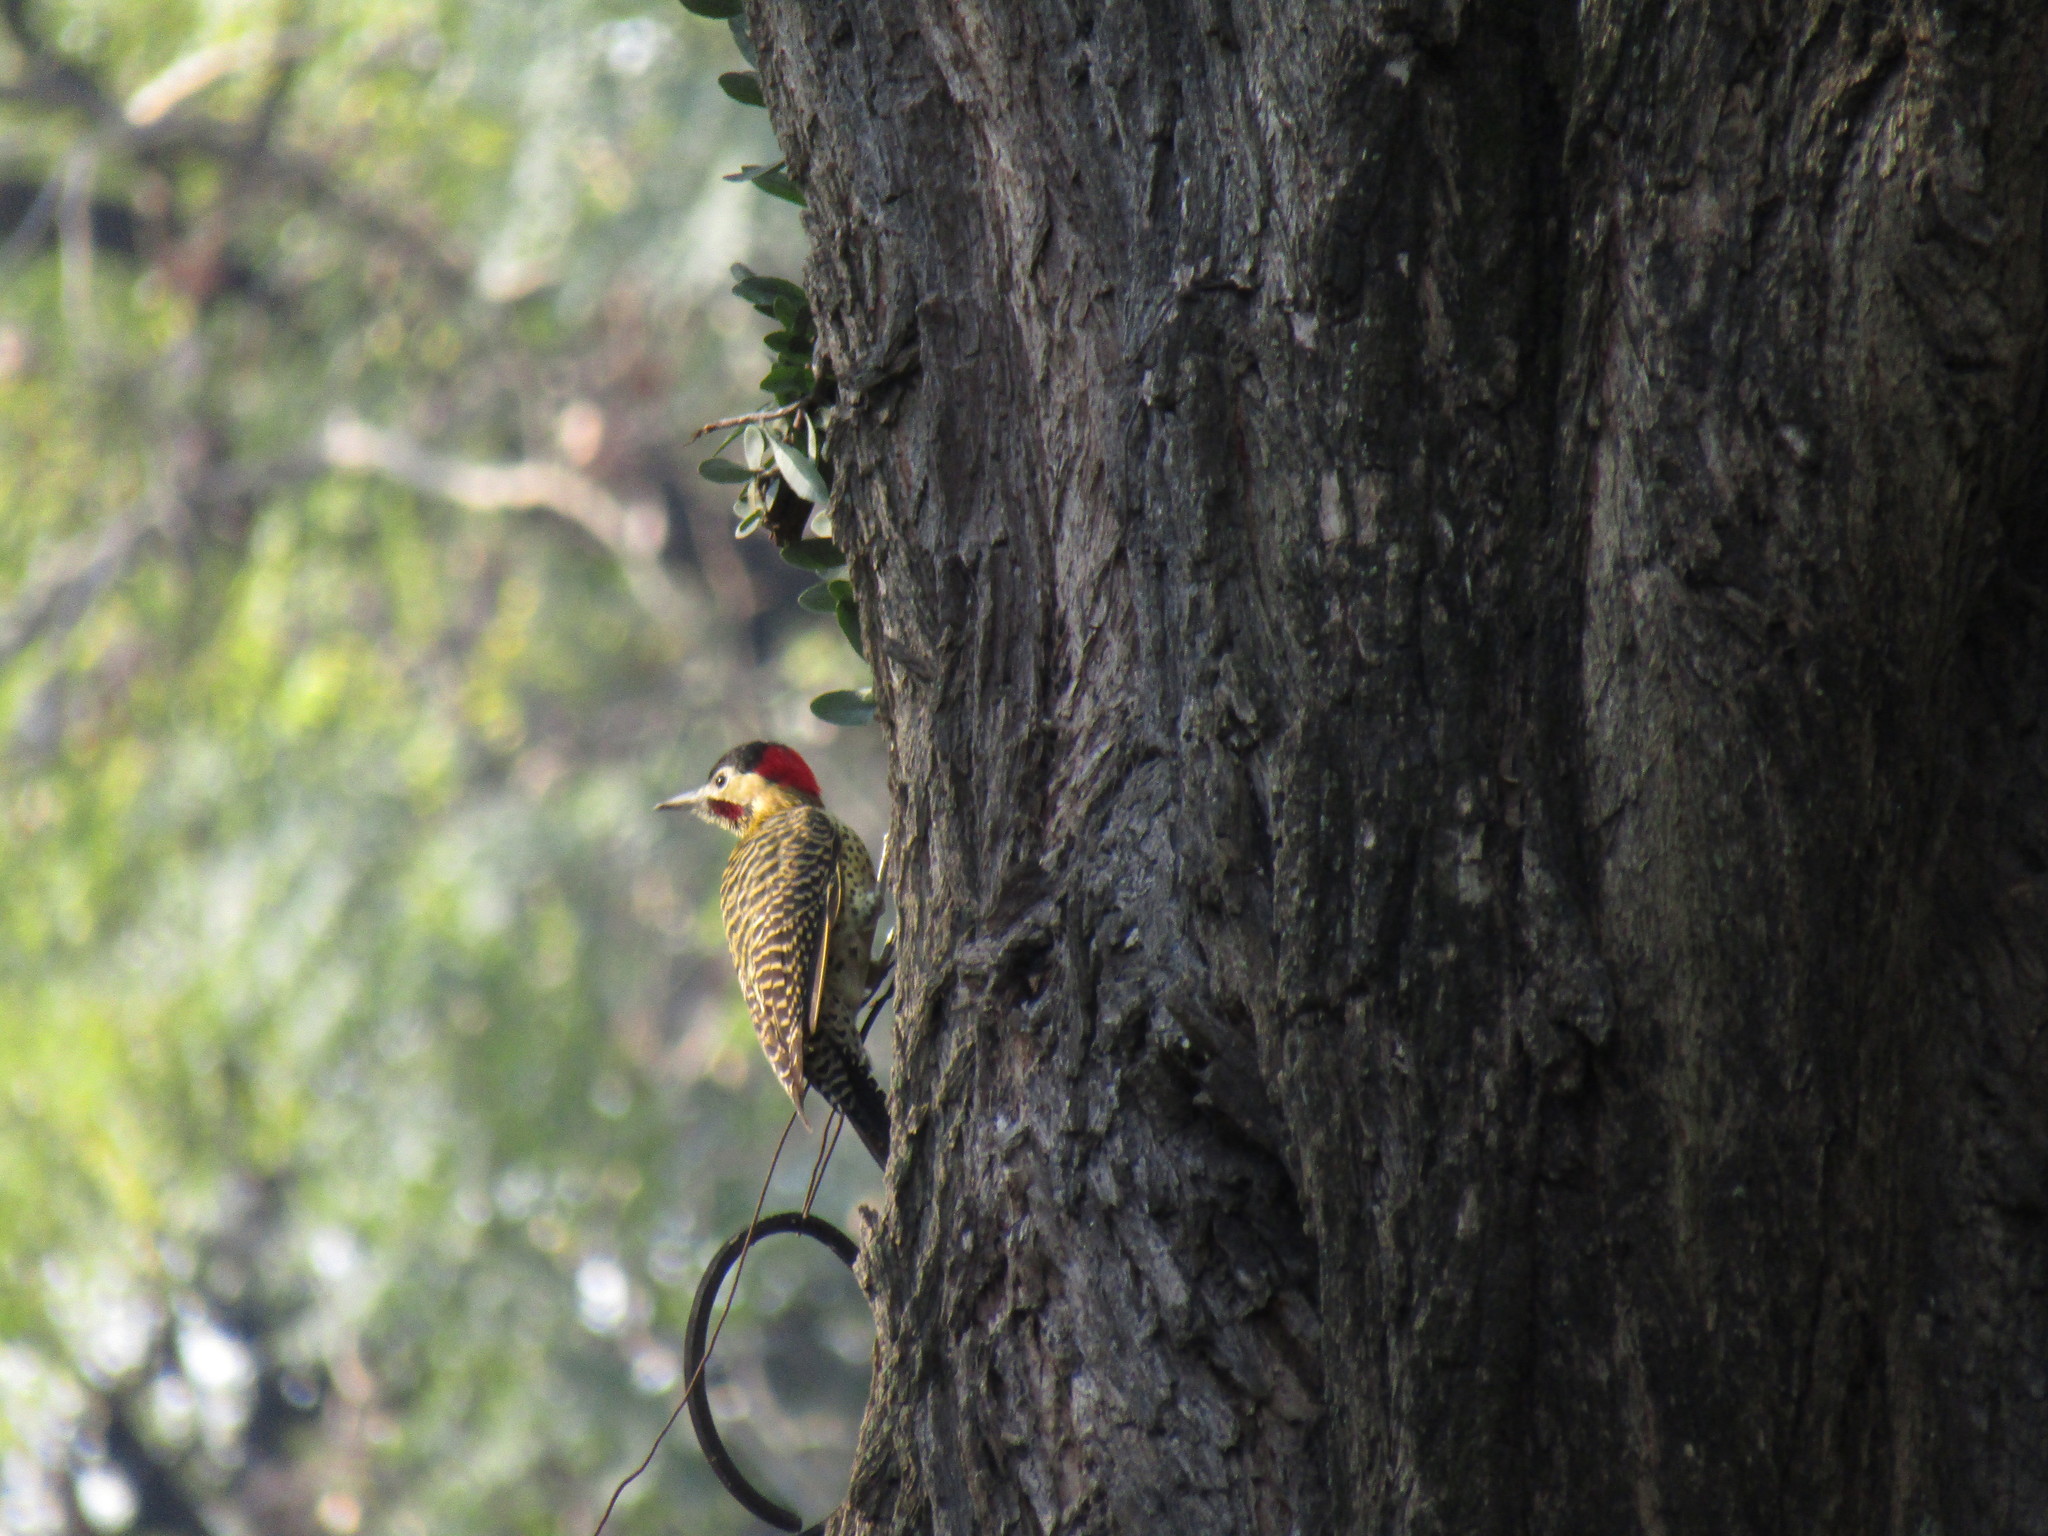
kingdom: Animalia
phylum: Chordata
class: Aves
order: Piciformes
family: Picidae
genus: Colaptes
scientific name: Colaptes melanochloros
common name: Green-barred woodpecker
